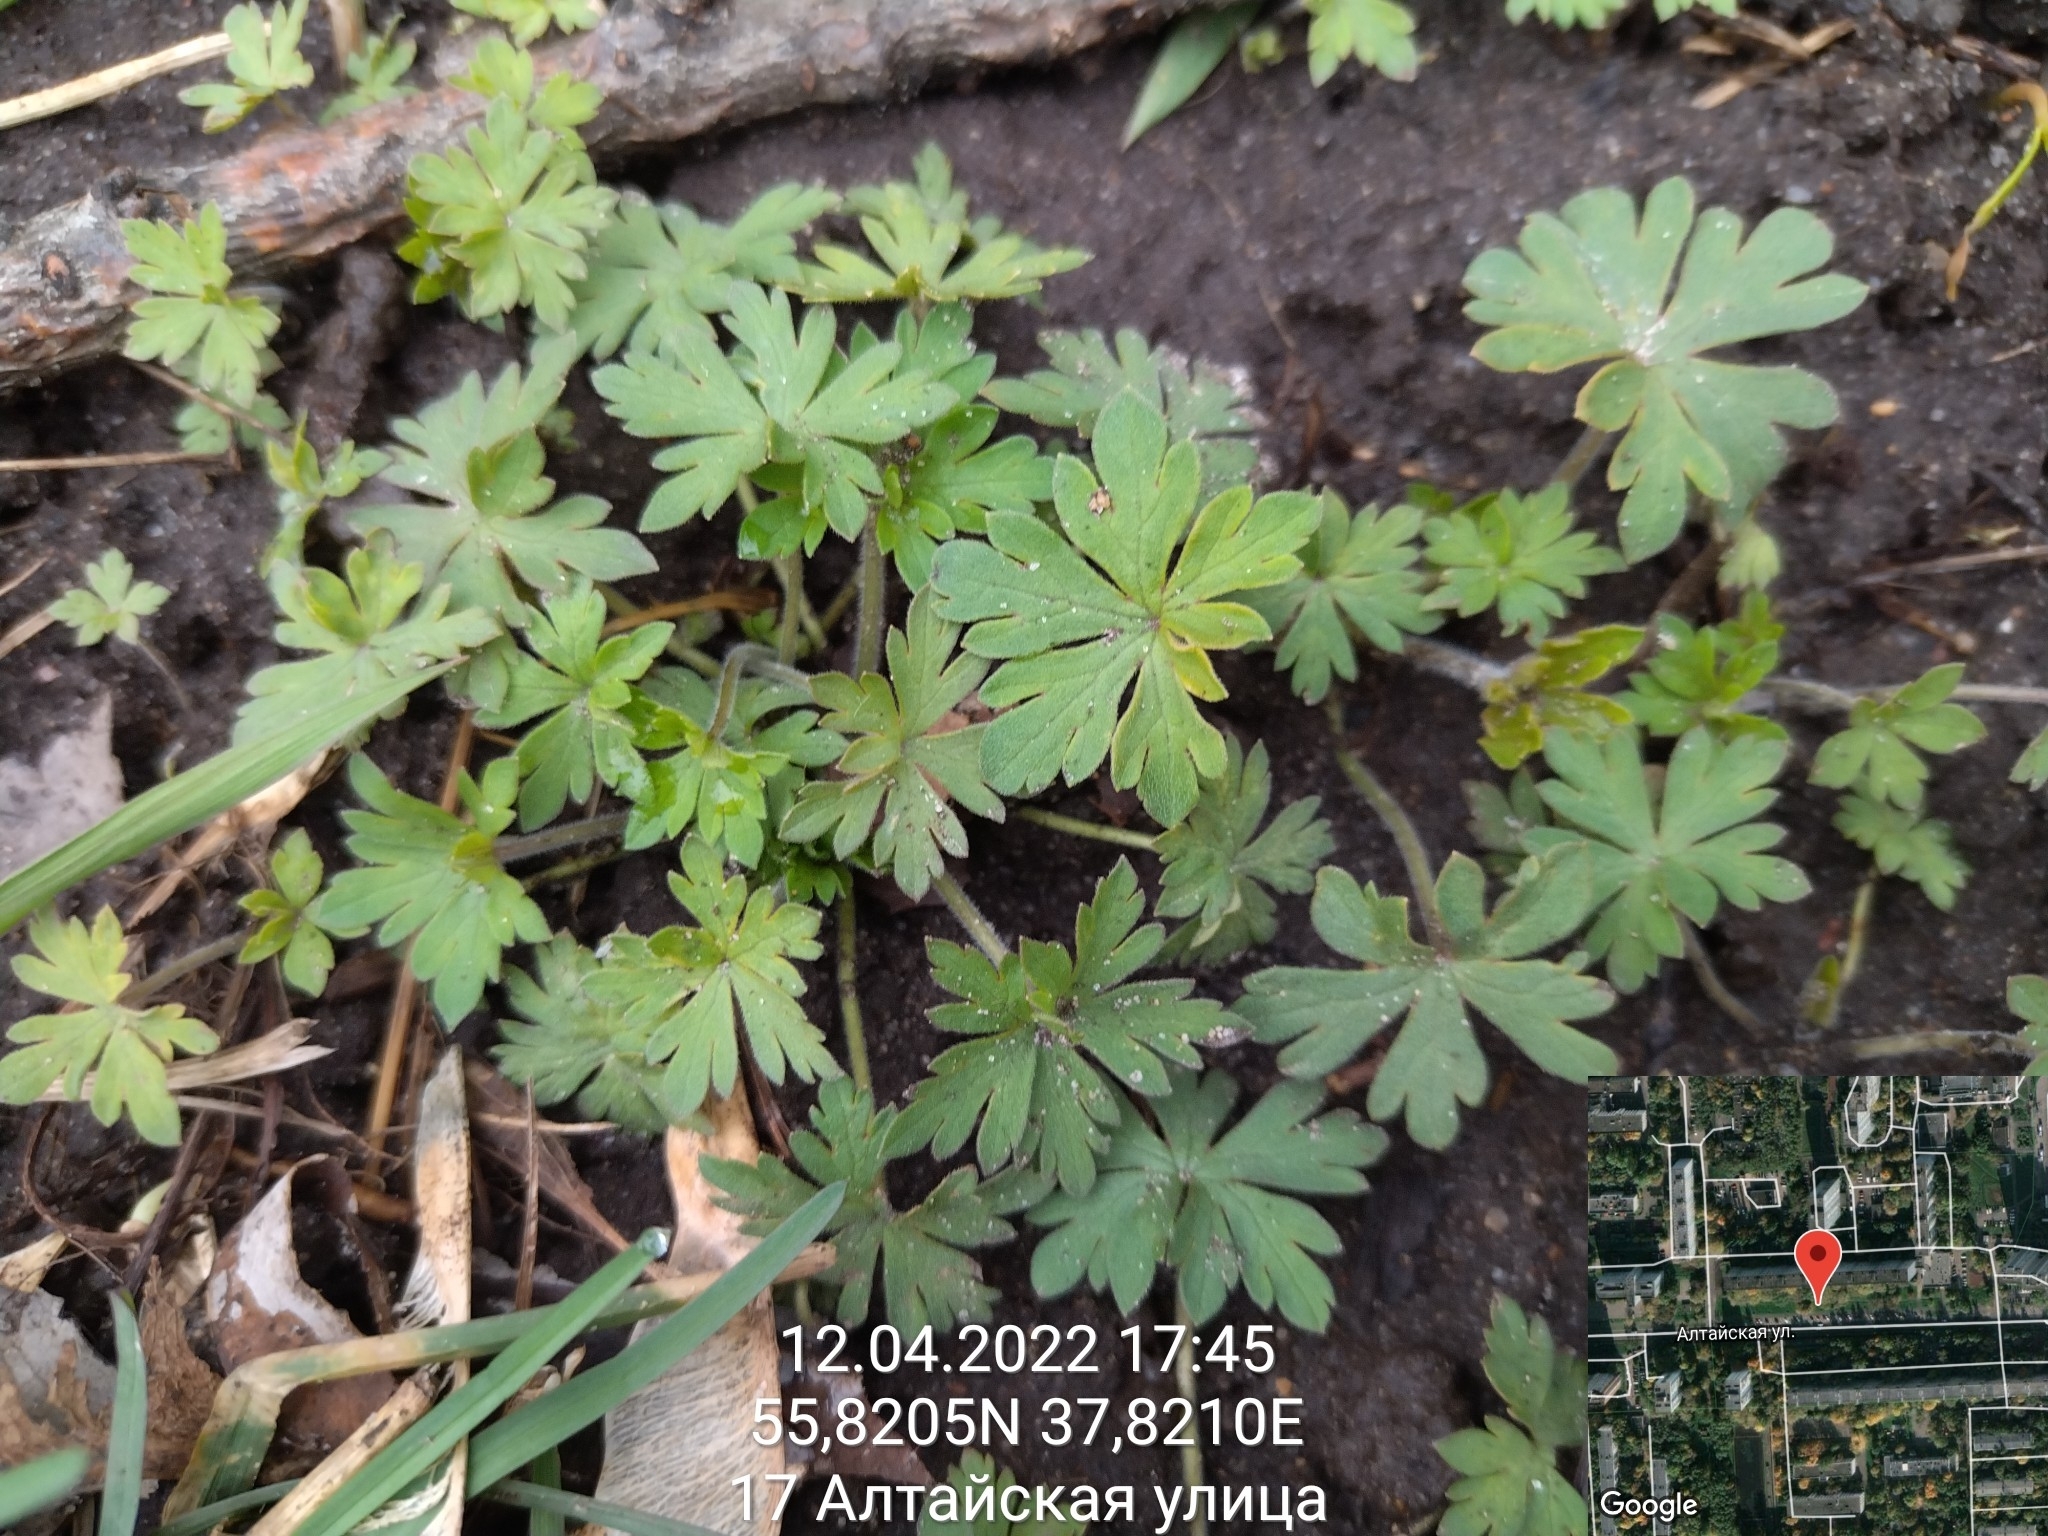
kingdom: Plantae
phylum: Tracheophyta
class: Magnoliopsida
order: Geraniales
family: Geraniaceae
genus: Geranium
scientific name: Geranium sibiricum
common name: Siberian crane's-bill
